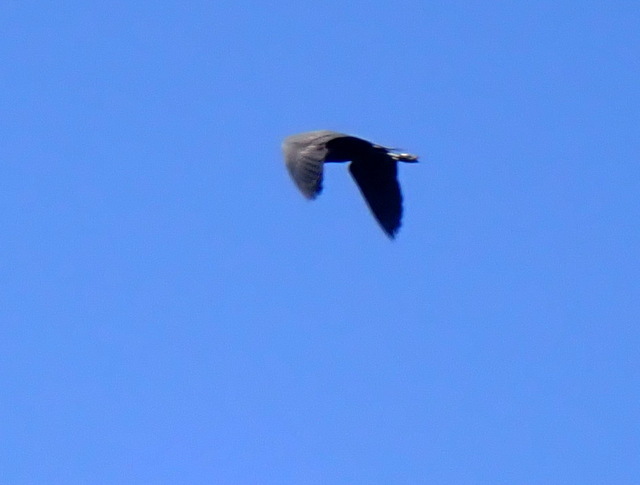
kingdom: Animalia
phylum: Chordata
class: Aves
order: Pelecaniformes
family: Ardeidae
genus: Egretta
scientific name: Egretta caerulea
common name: Little blue heron
